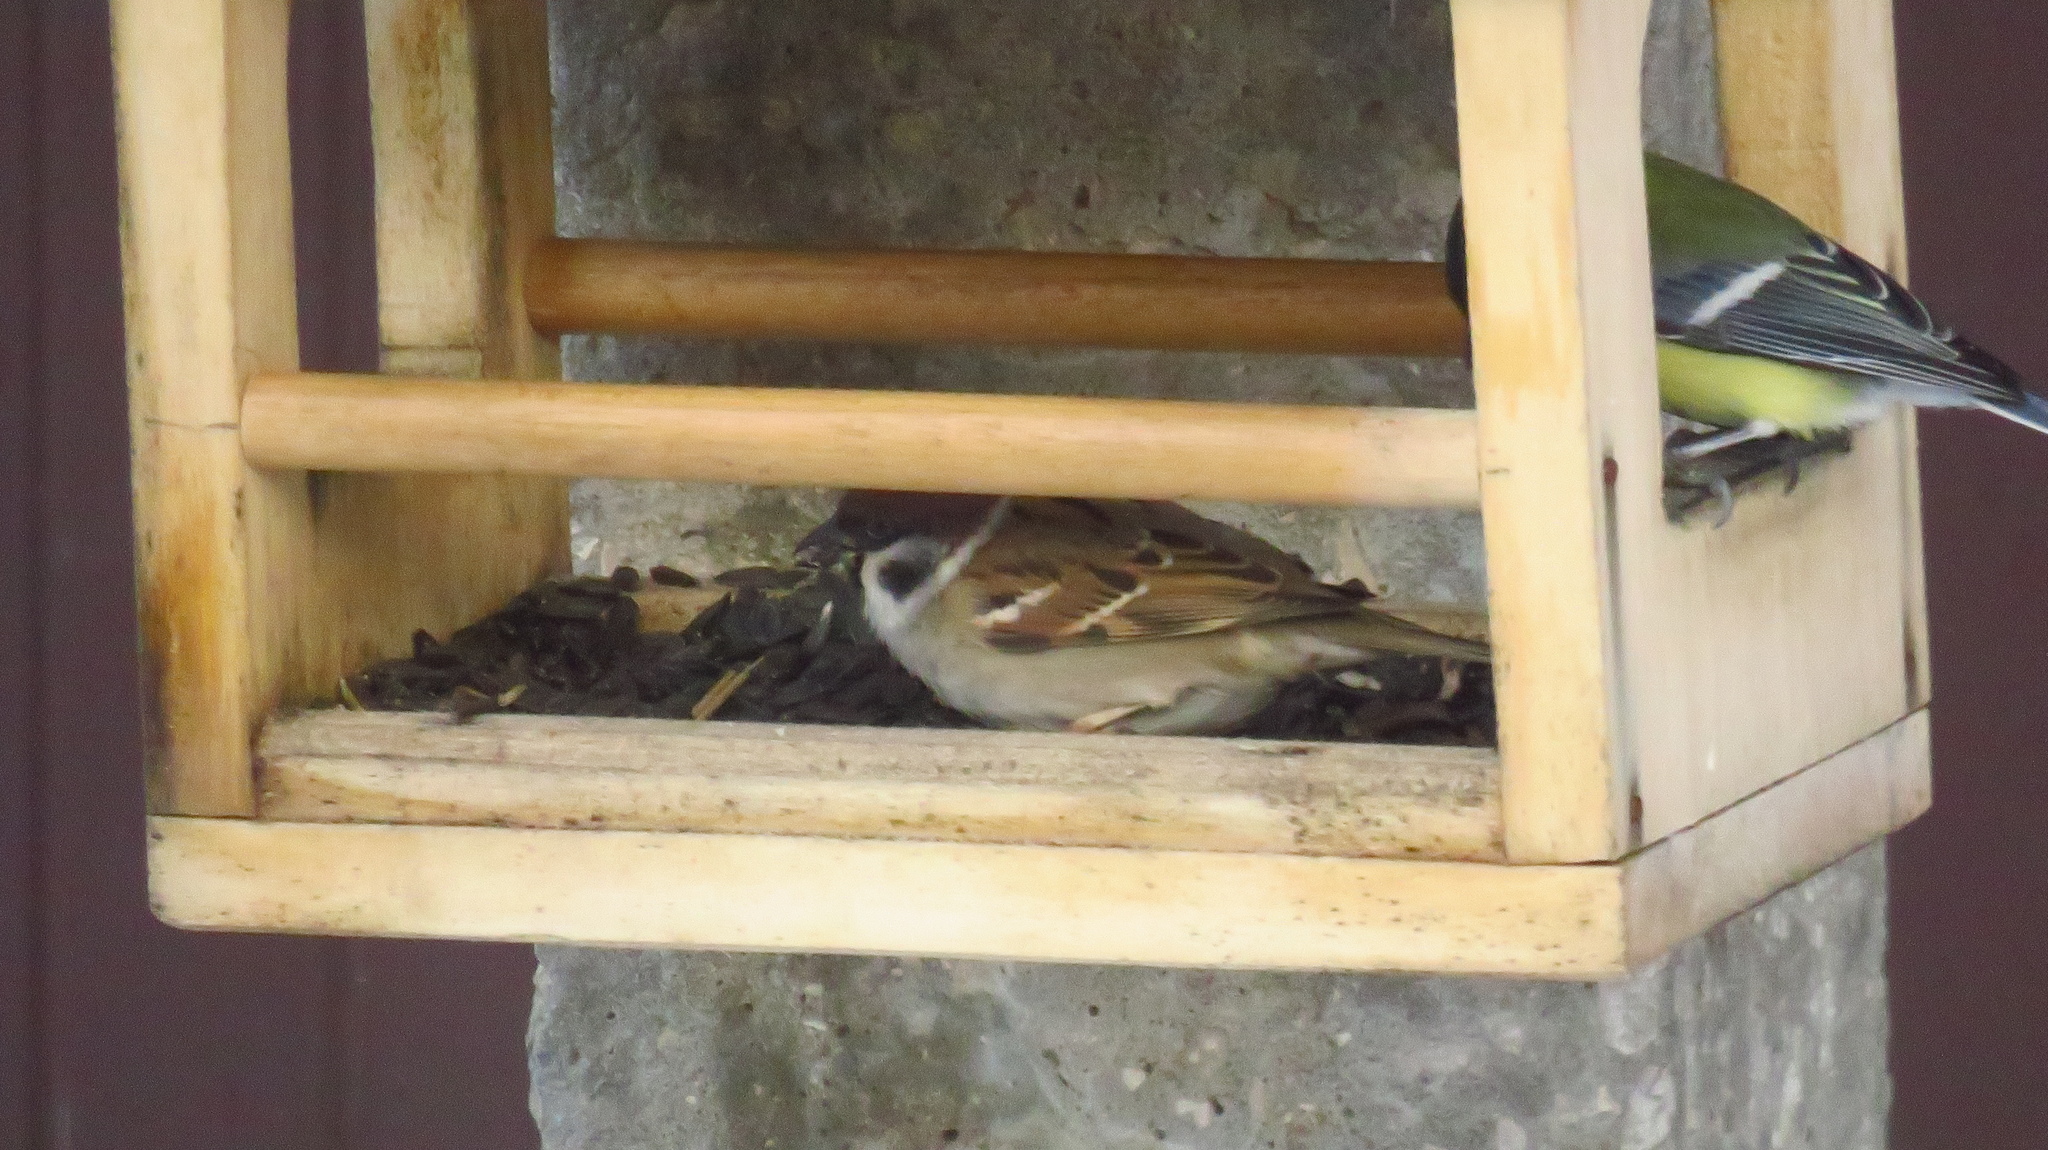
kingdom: Animalia
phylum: Chordata
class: Aves
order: Passeriformes
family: Passeridae
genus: Passer
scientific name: Passer montanus
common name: Eurasian tree sparrow
